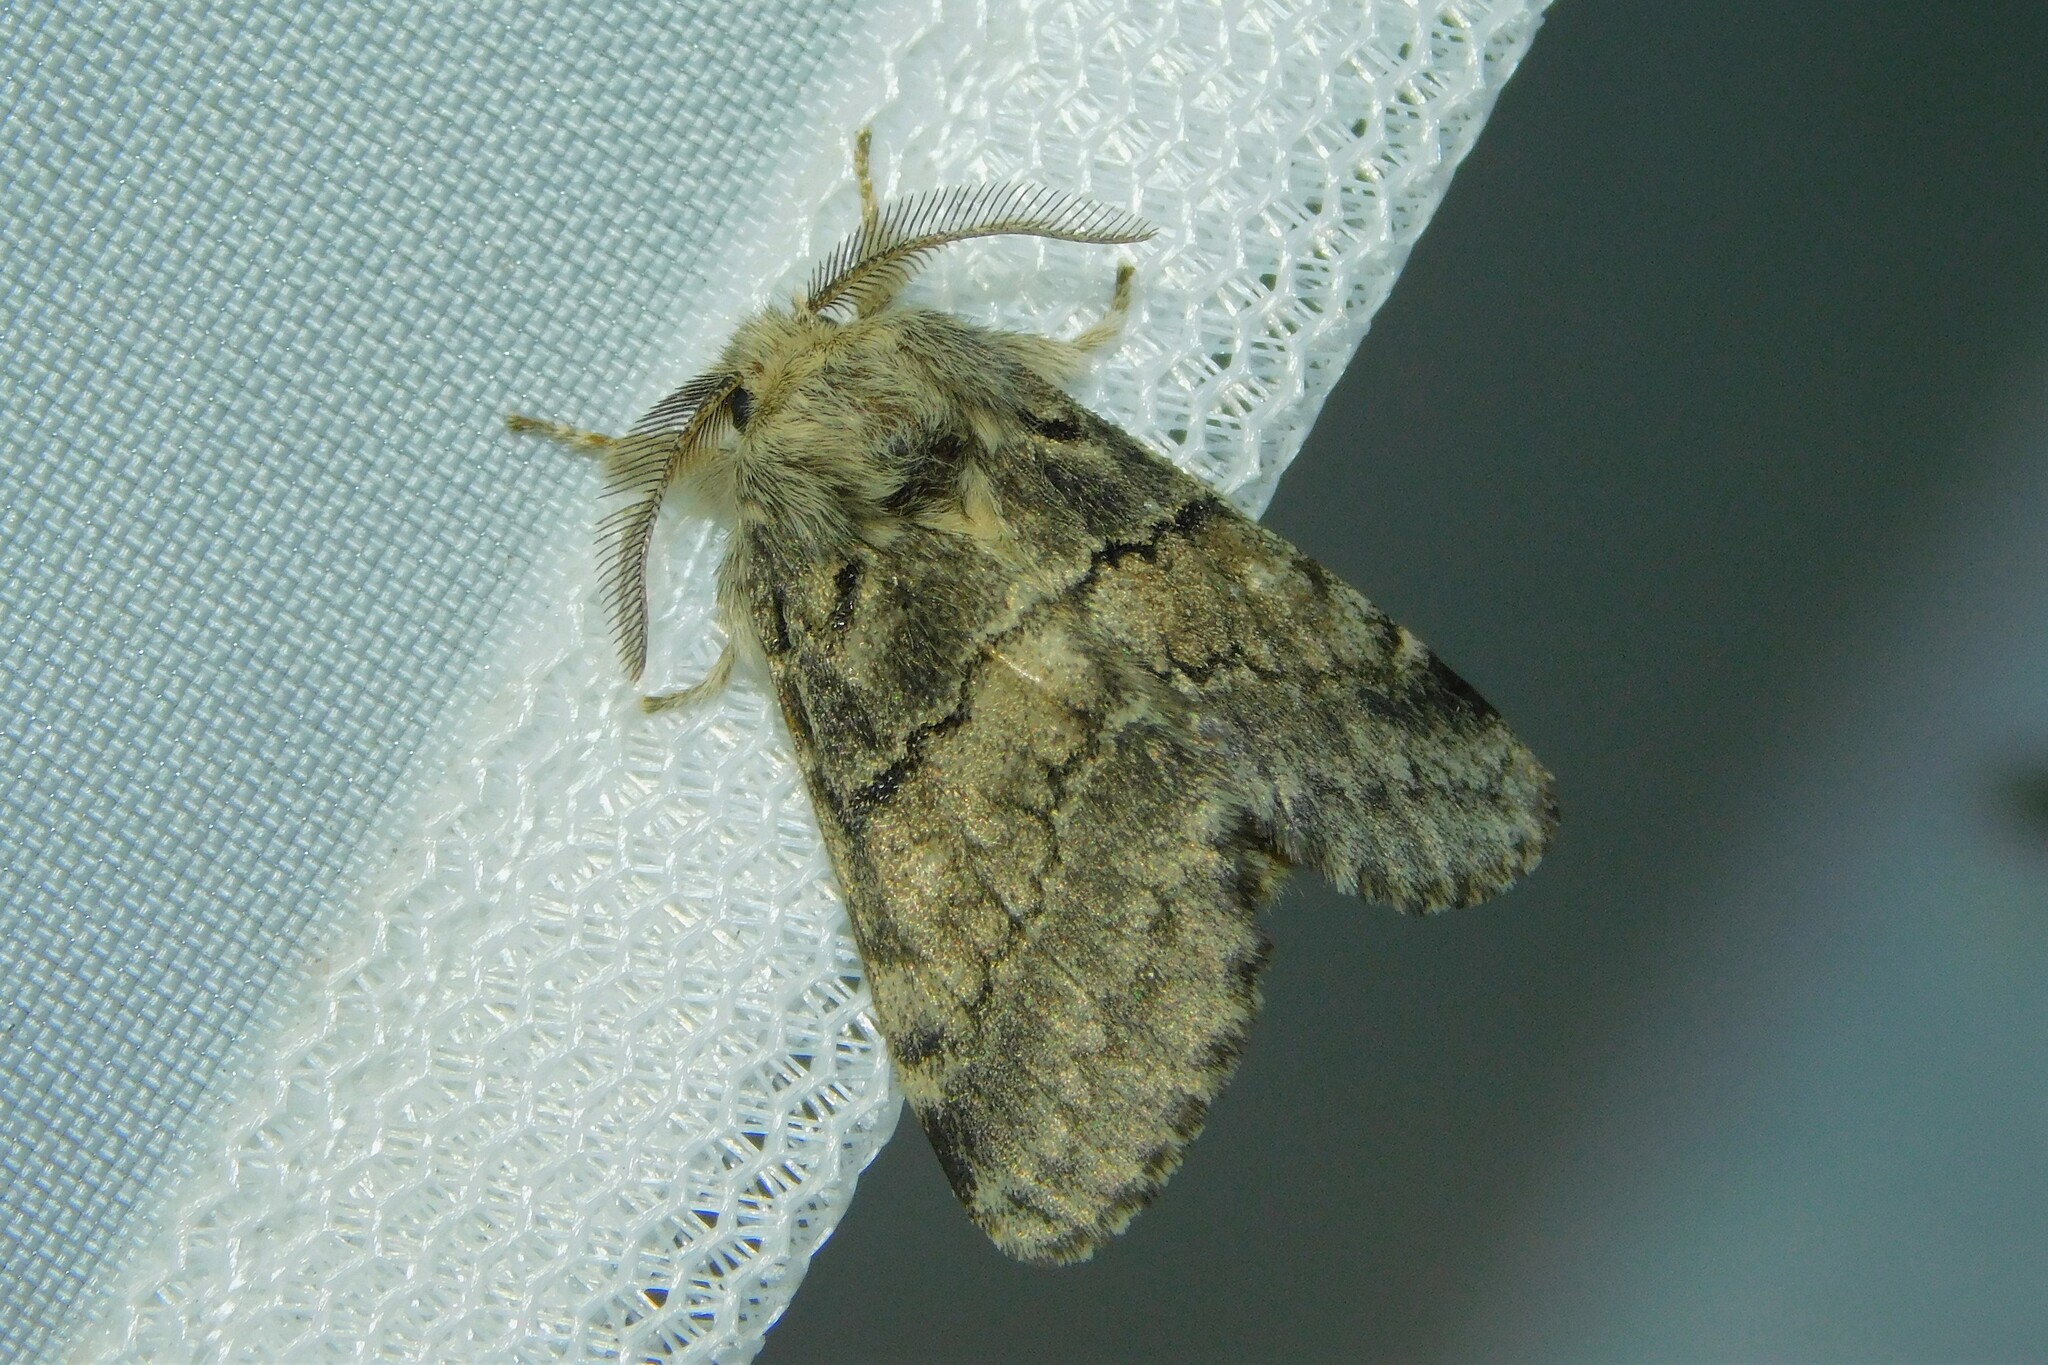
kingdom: Animalia
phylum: Arthropoda
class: Insecta
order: Lepidoptera
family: Notodontidae
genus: Gluphisia
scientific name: Gluphisia crenata
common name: Dusky marbled brown
